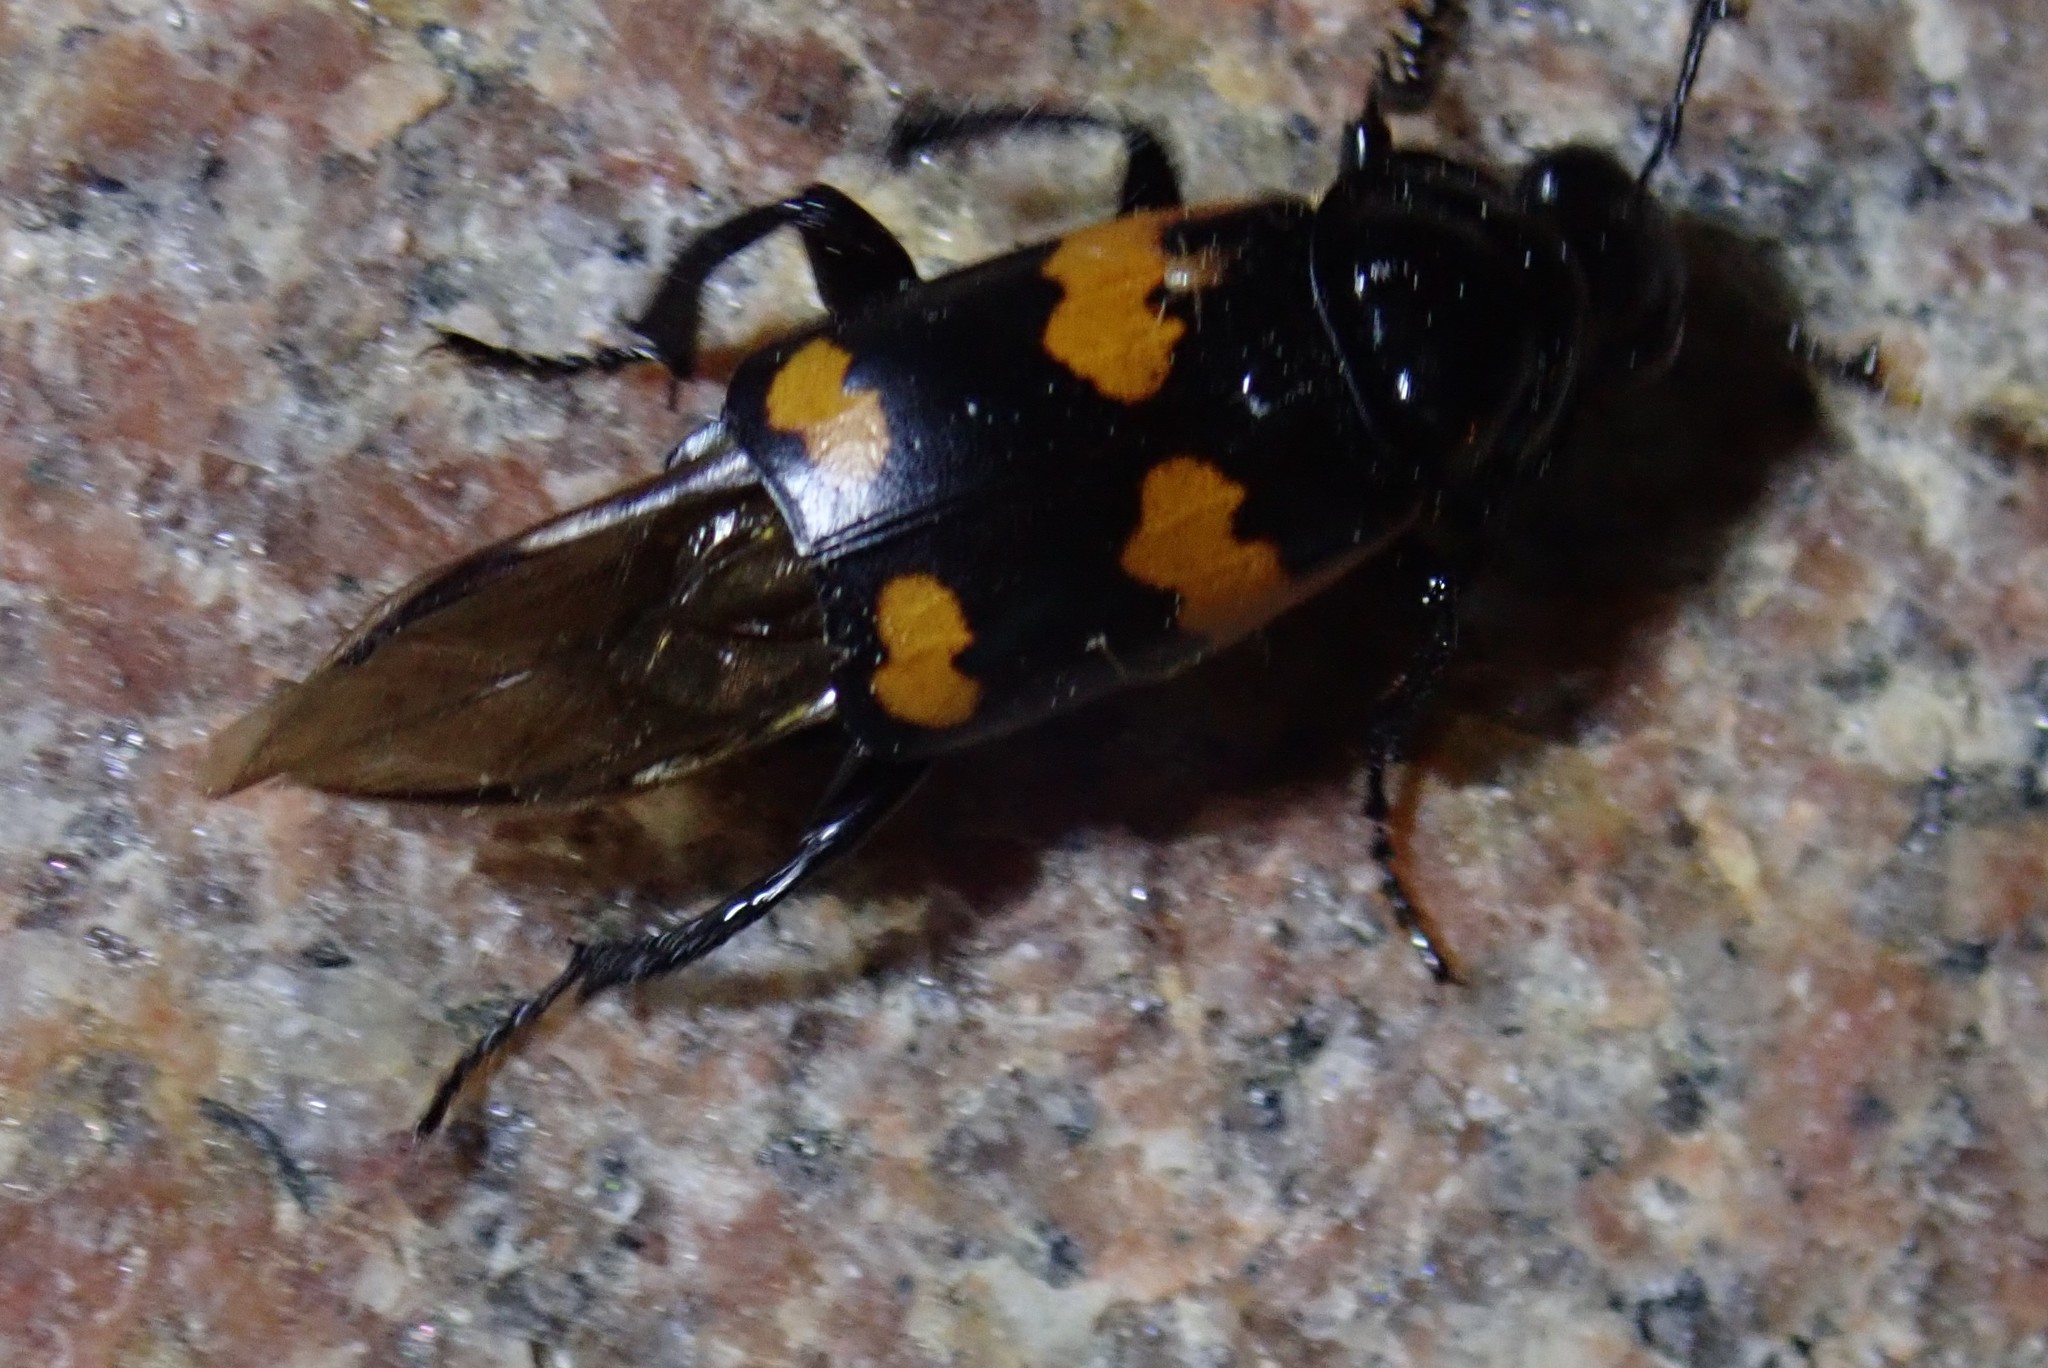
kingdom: Animalia
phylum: Arthropoda
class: Insecta
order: Coleoptera
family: Staphylinidae
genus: Nicrophorus
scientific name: Nicrophorus sayi
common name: Say's burying beetle
